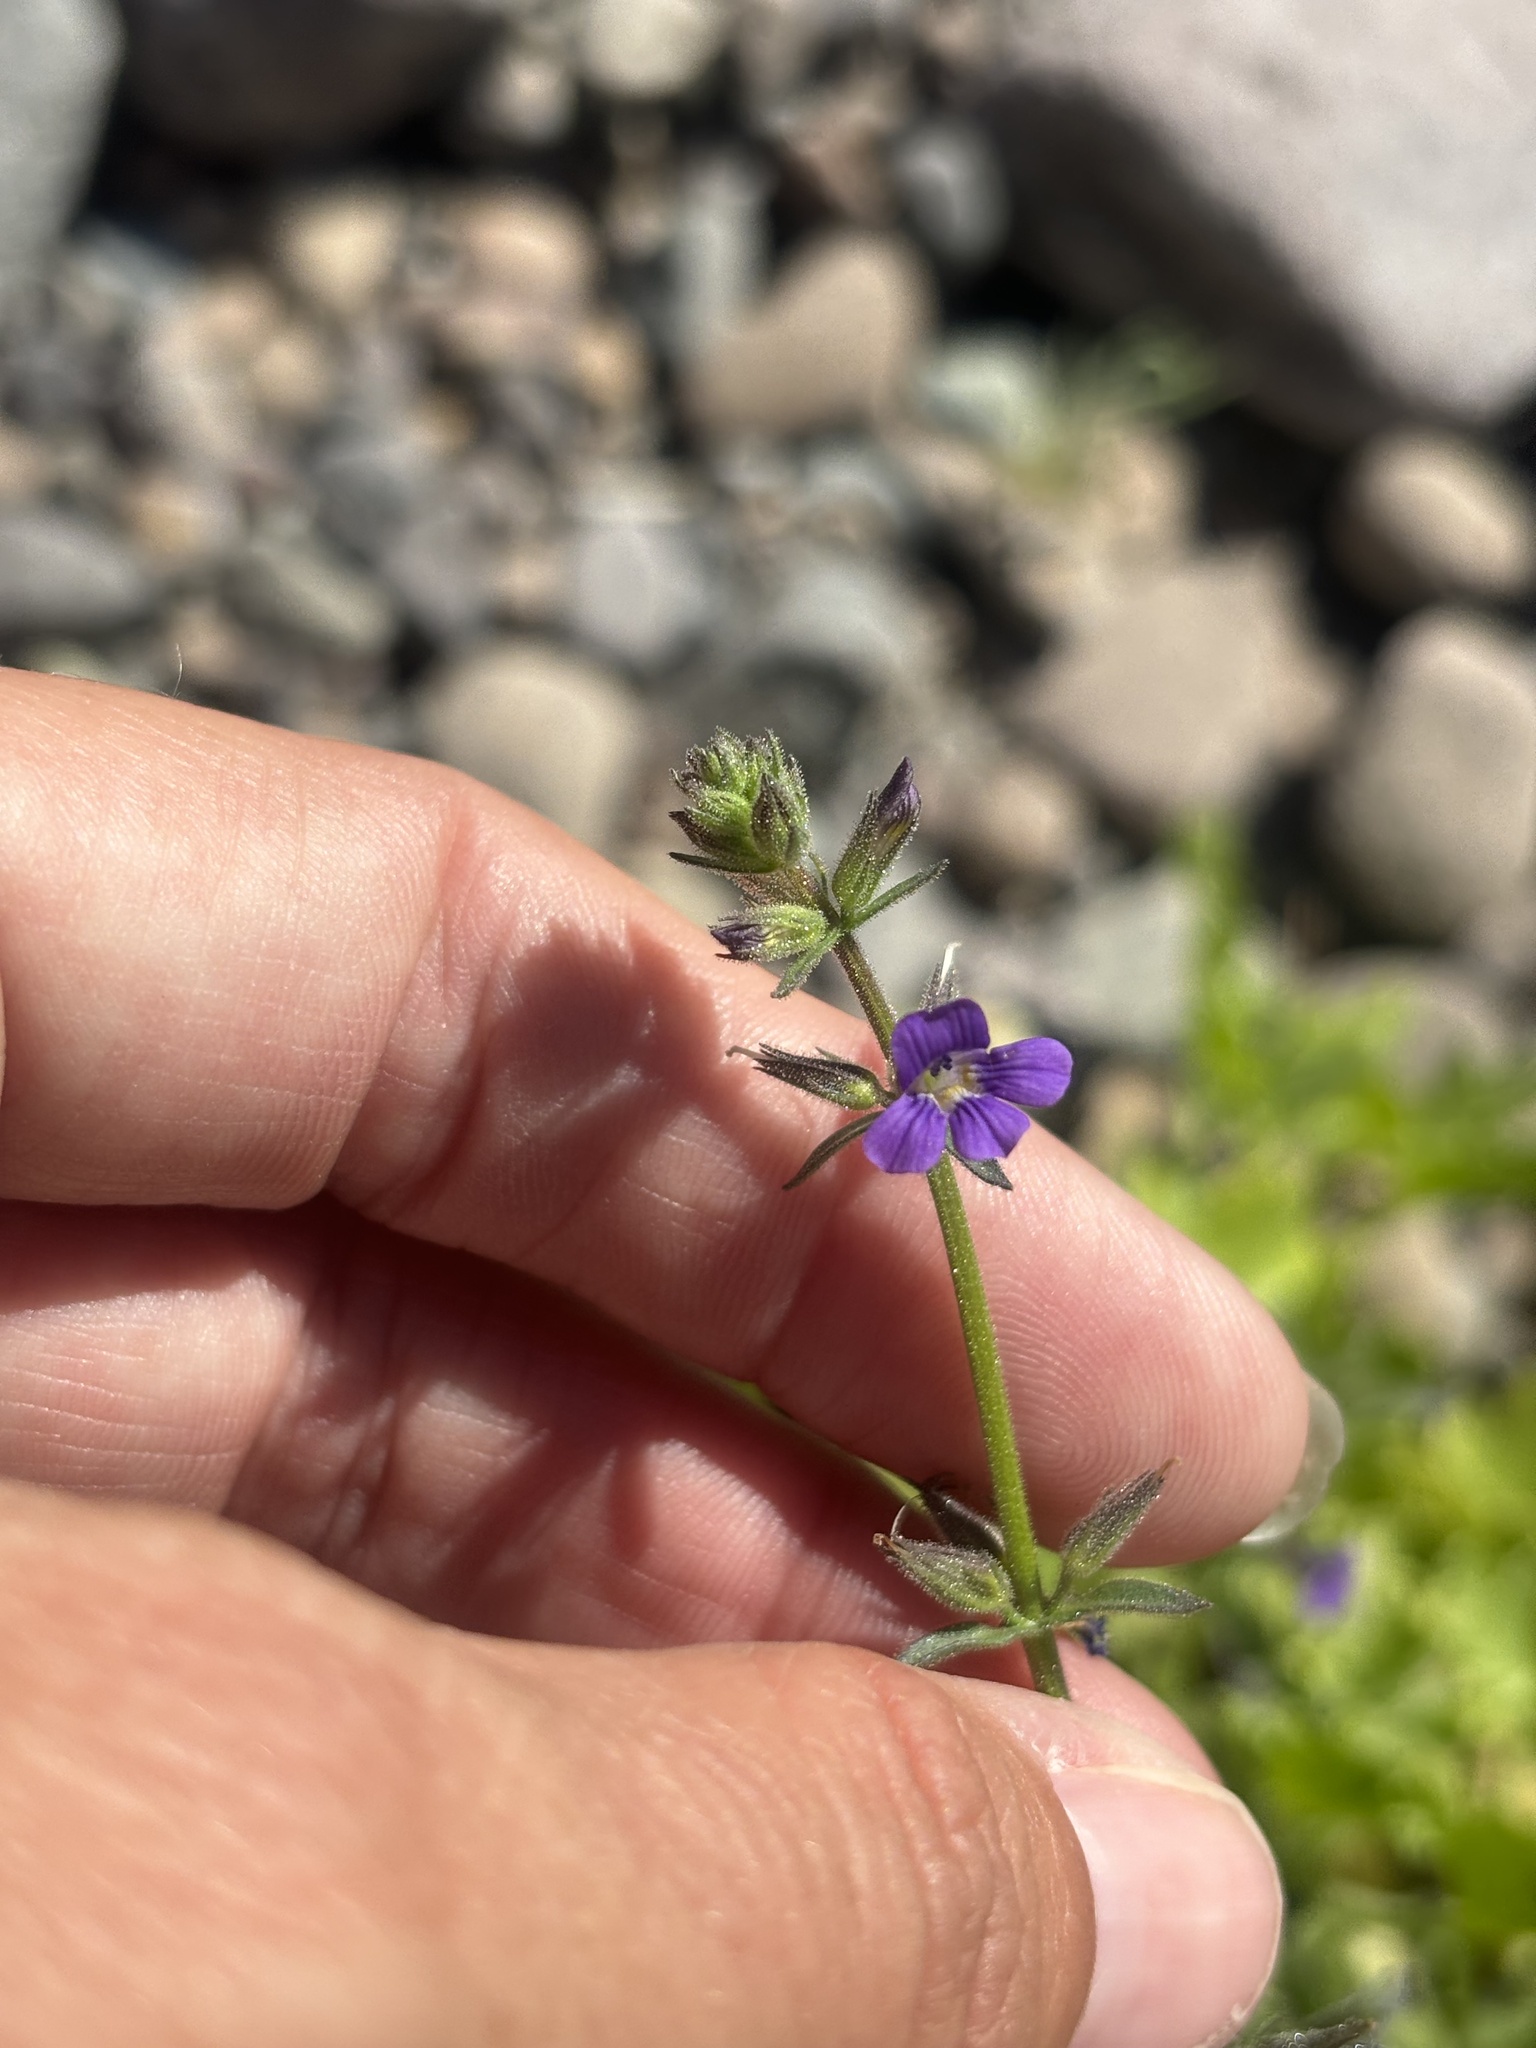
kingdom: Plantae
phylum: Tracheophyta
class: Magnoliopsida
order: Lamiales
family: Plantaginaceae
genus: Stemodia
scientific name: Stemodia durantifolia
